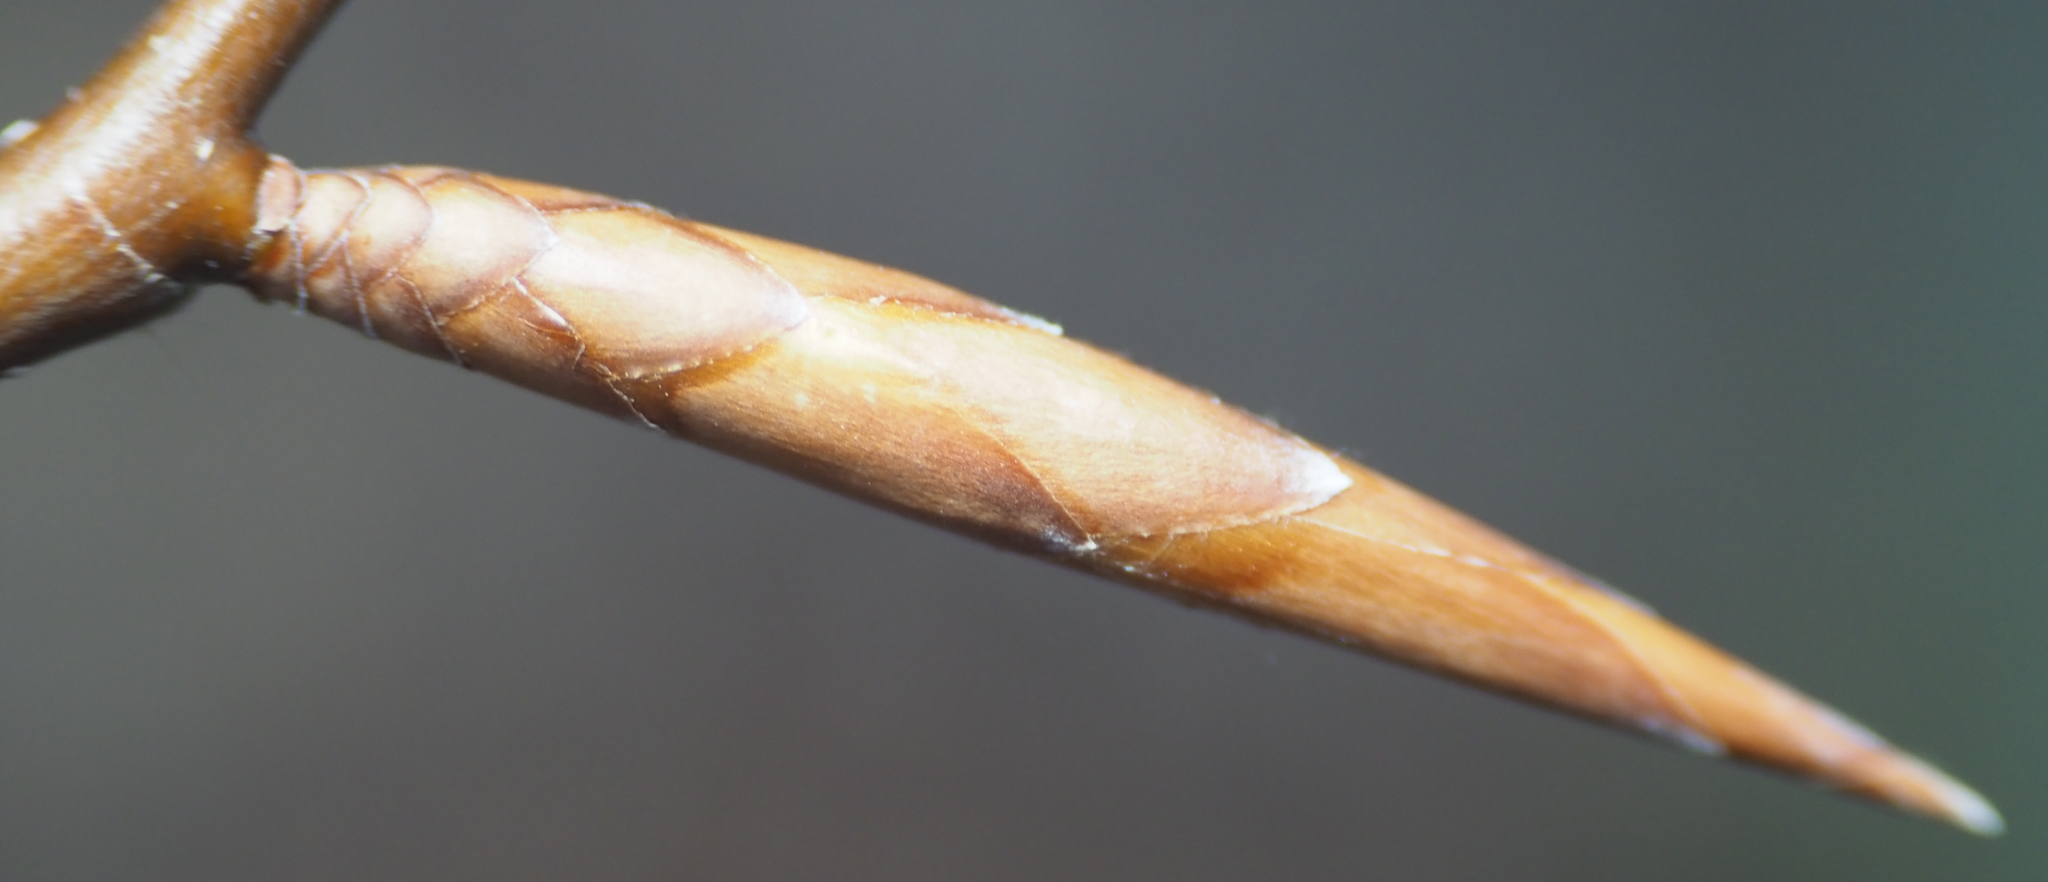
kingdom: Plantae
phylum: Tracheophyta
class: Magnoliopsida
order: Fagales
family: Fagaceae
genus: Fagus
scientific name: Fagus grandifolia
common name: American beech
